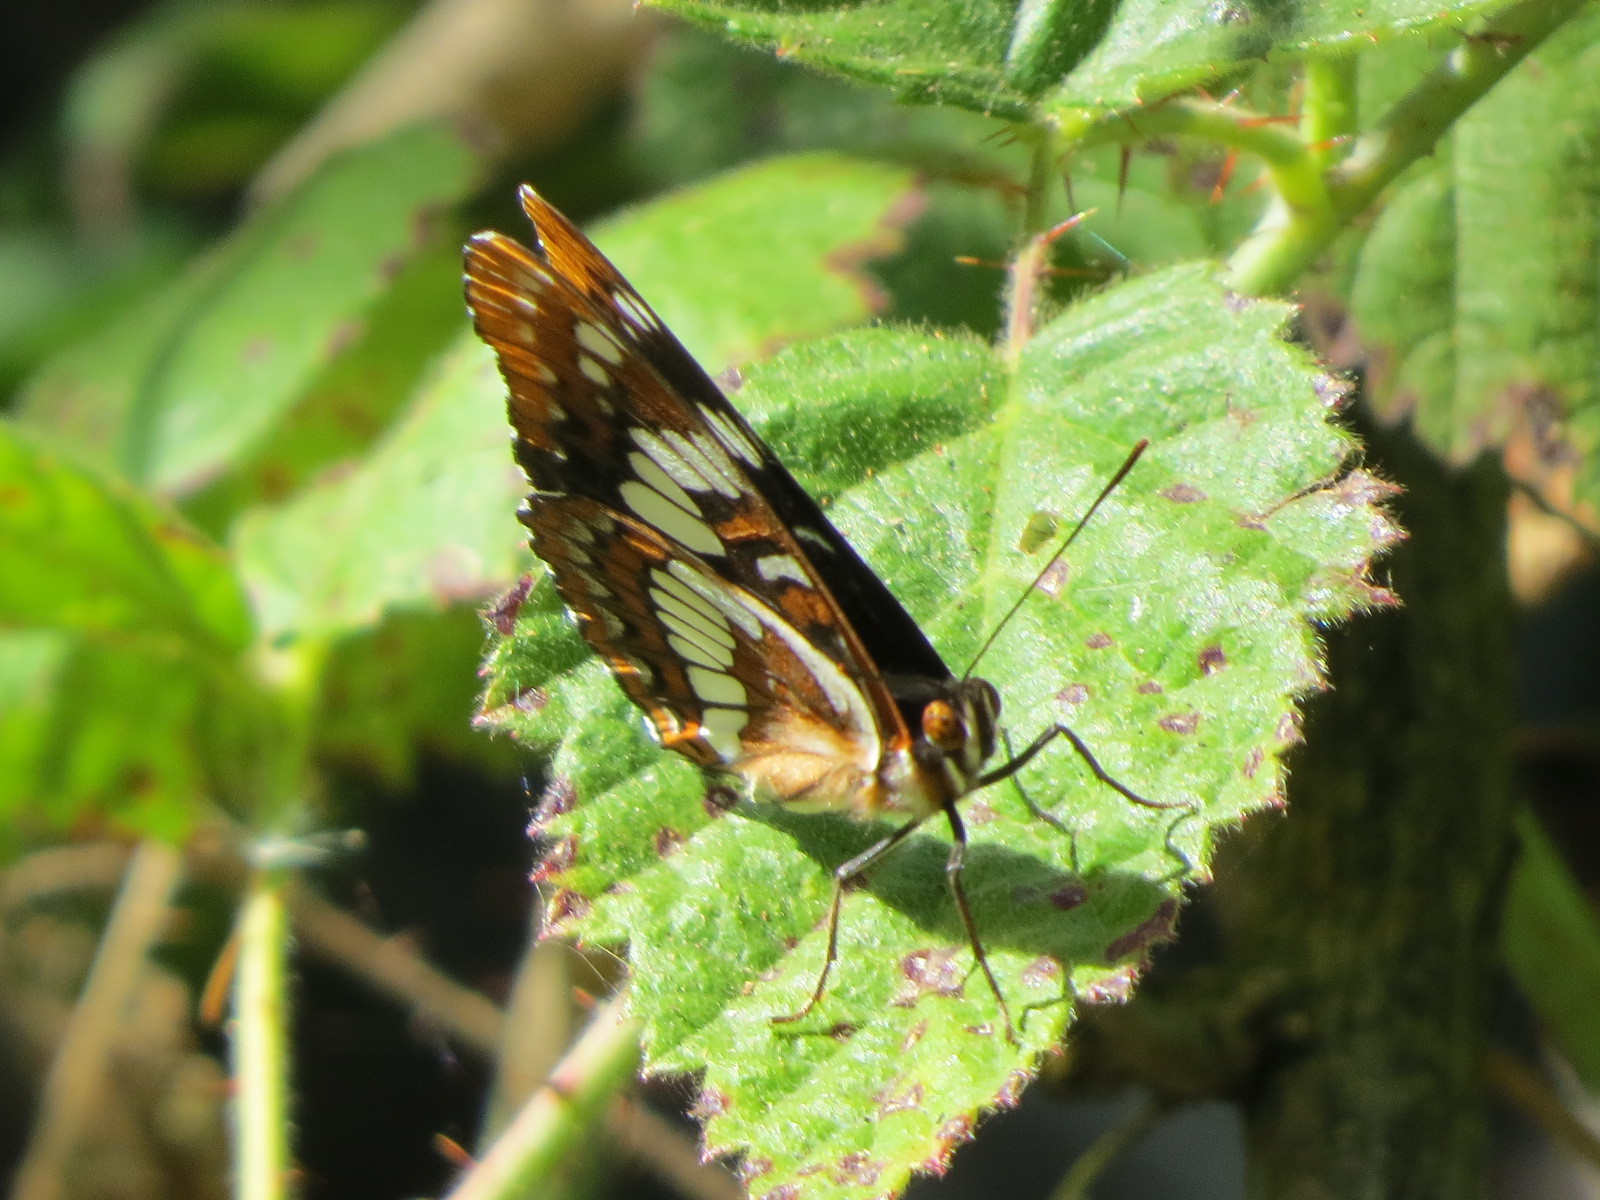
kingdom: Animalia
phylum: Arthropoda
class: Insecta
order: Lepidoptera
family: Nymphalidae
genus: Limenitis
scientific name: Limenitis lorquini
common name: Lorquin's admiral
